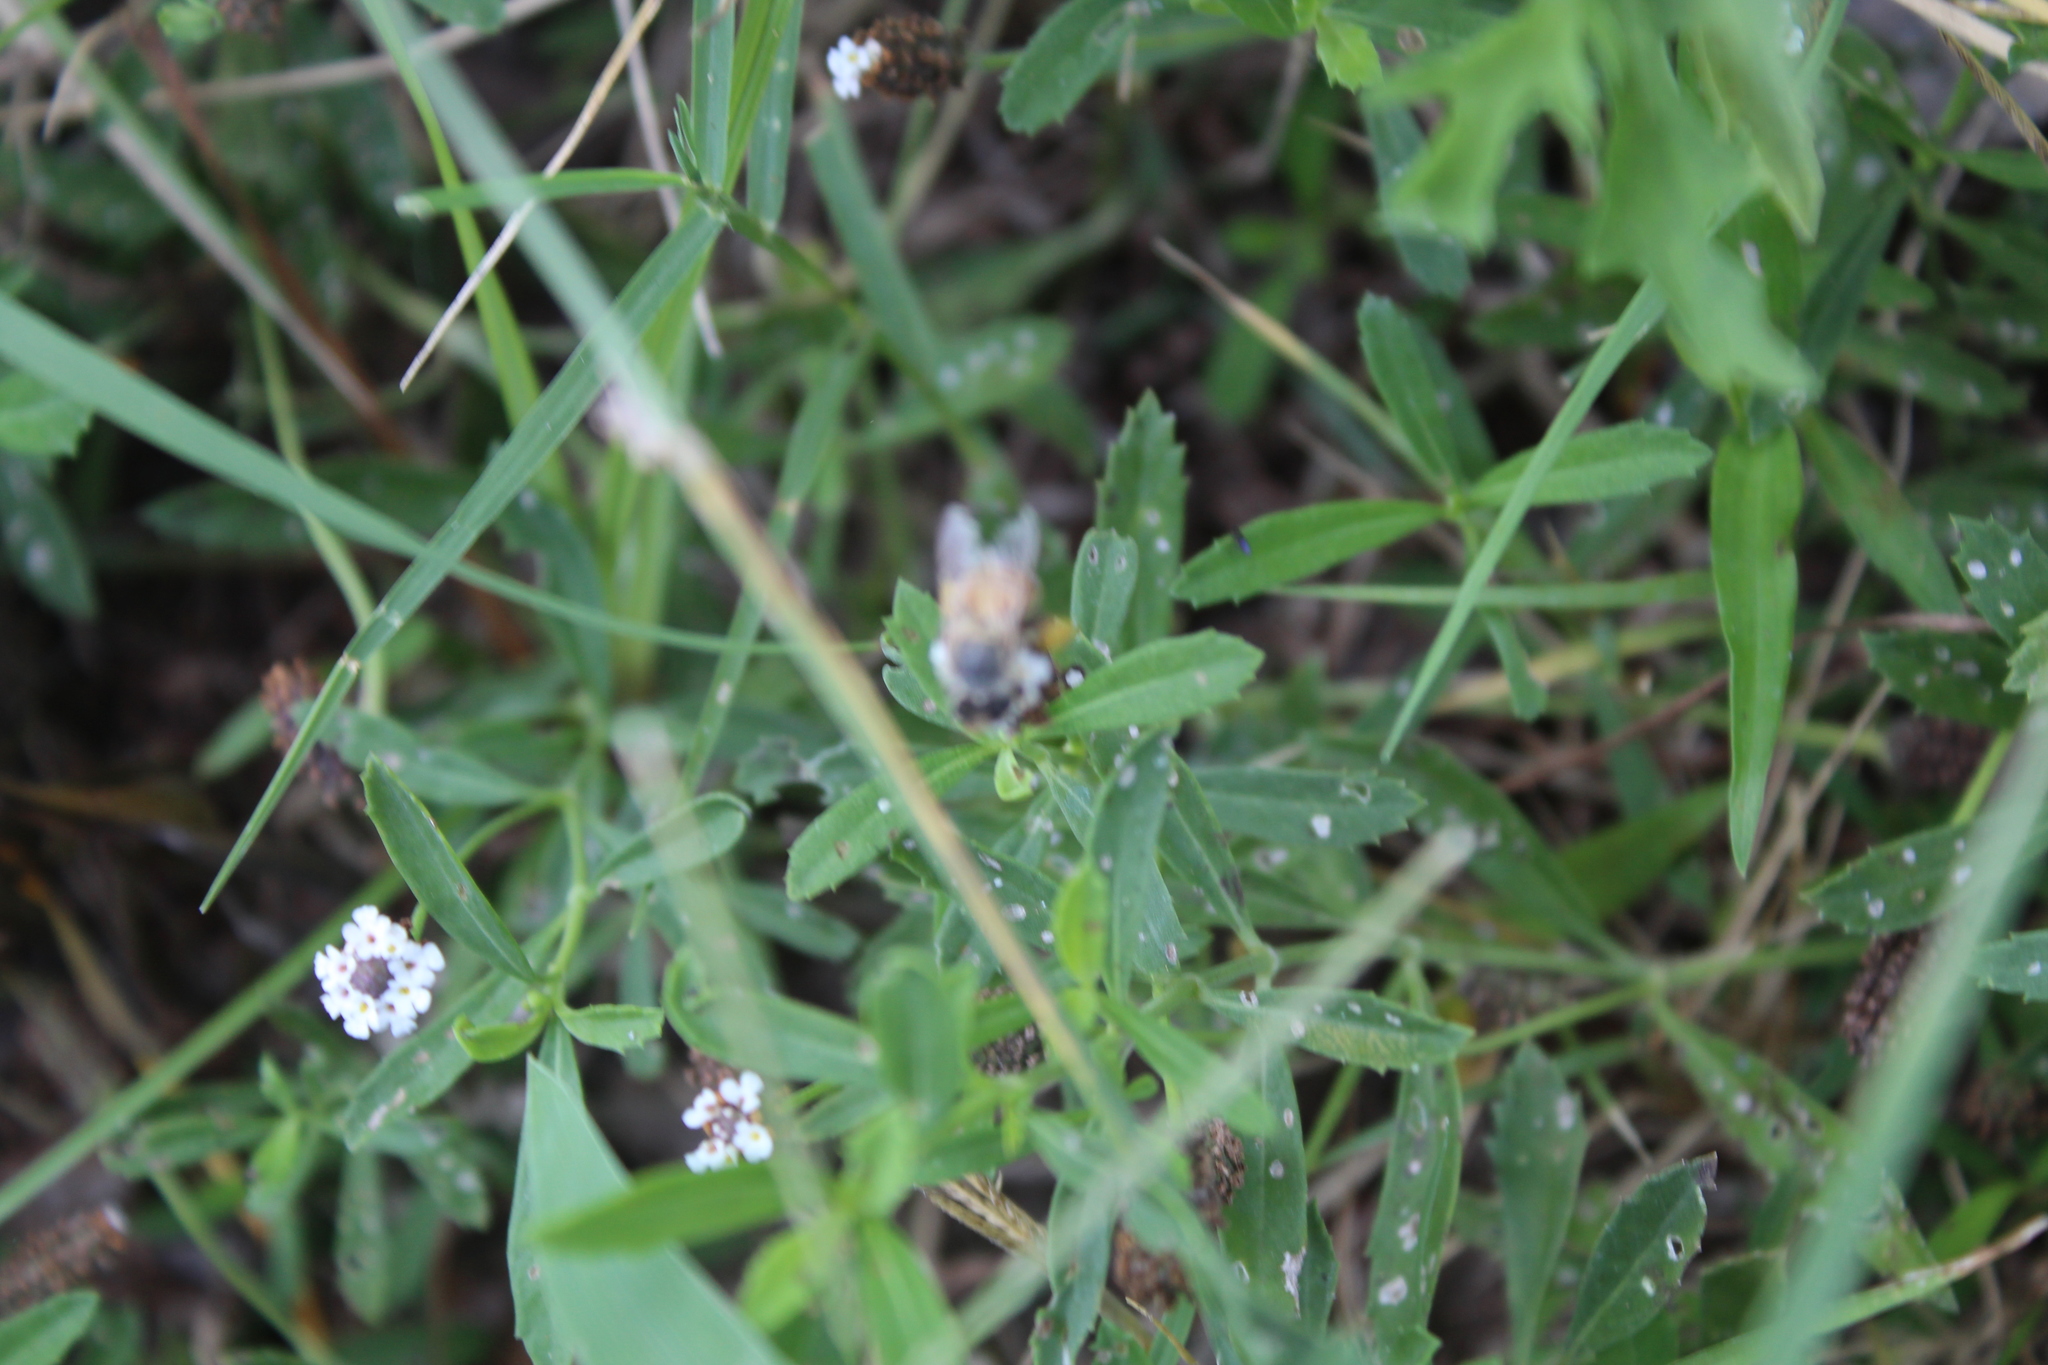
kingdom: Plantae
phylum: Tracheophyta
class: Magnoliopsida
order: Lamiales
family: Verbenaceae
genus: Phyla
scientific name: Phyla nodiflora
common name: Frogfruit
